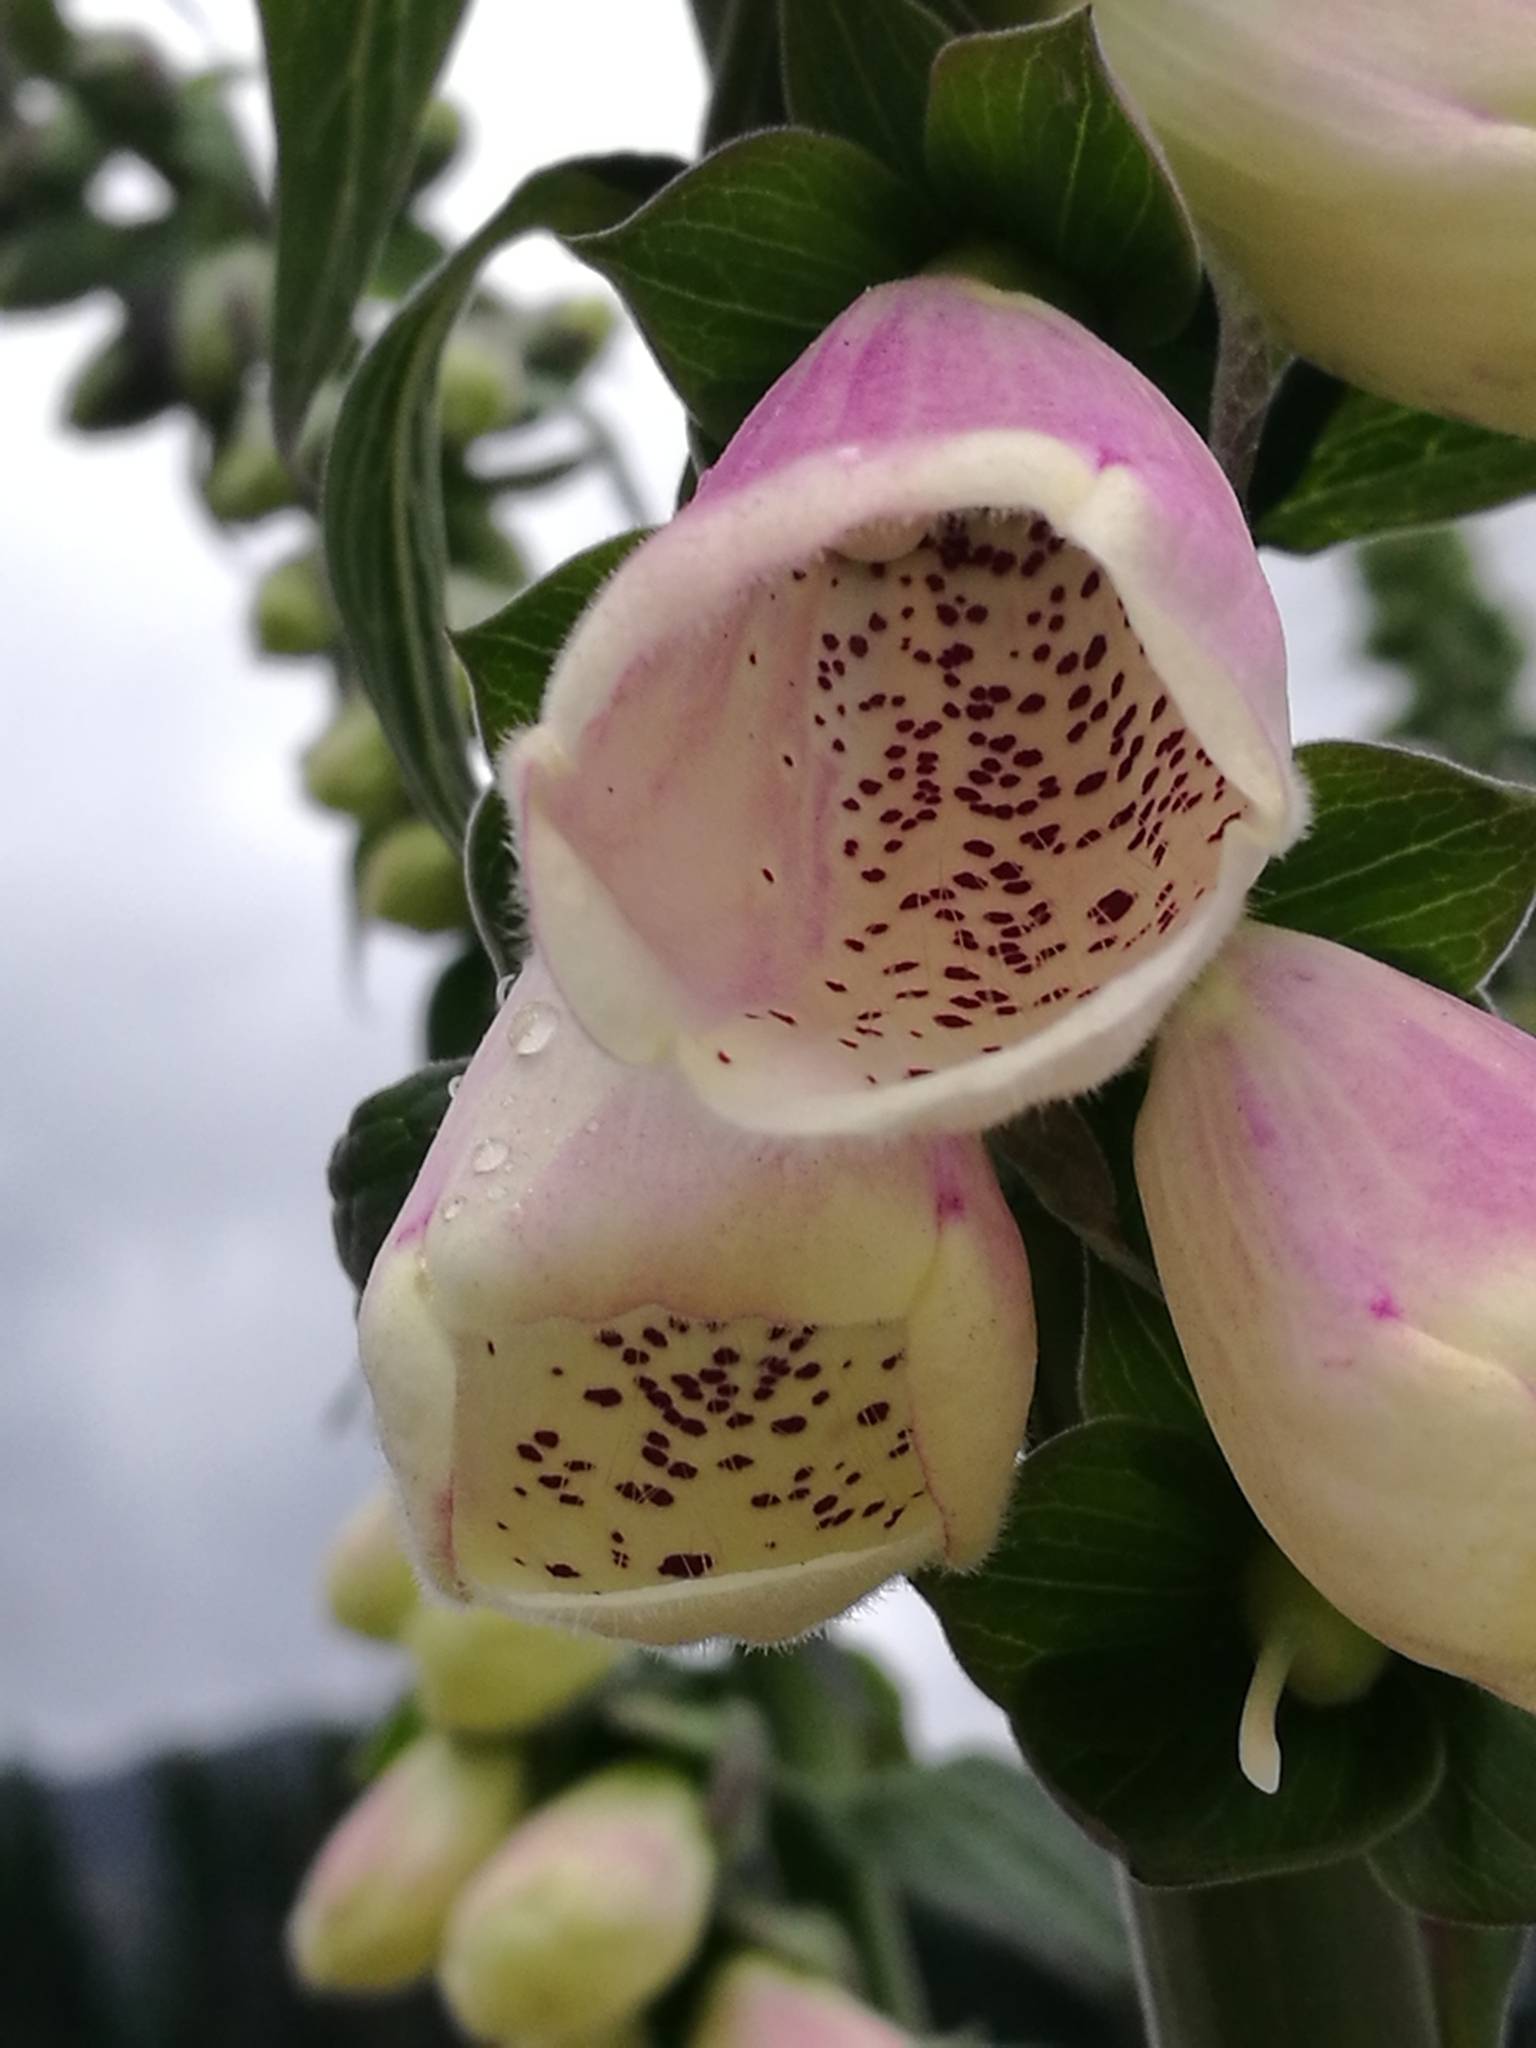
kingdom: Plantae
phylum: Tracheophyta
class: Magnoliopsida
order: Lamiales
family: Plantaginaceae
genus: Digitalis
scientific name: Digitalis purpurea
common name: Foxglove
